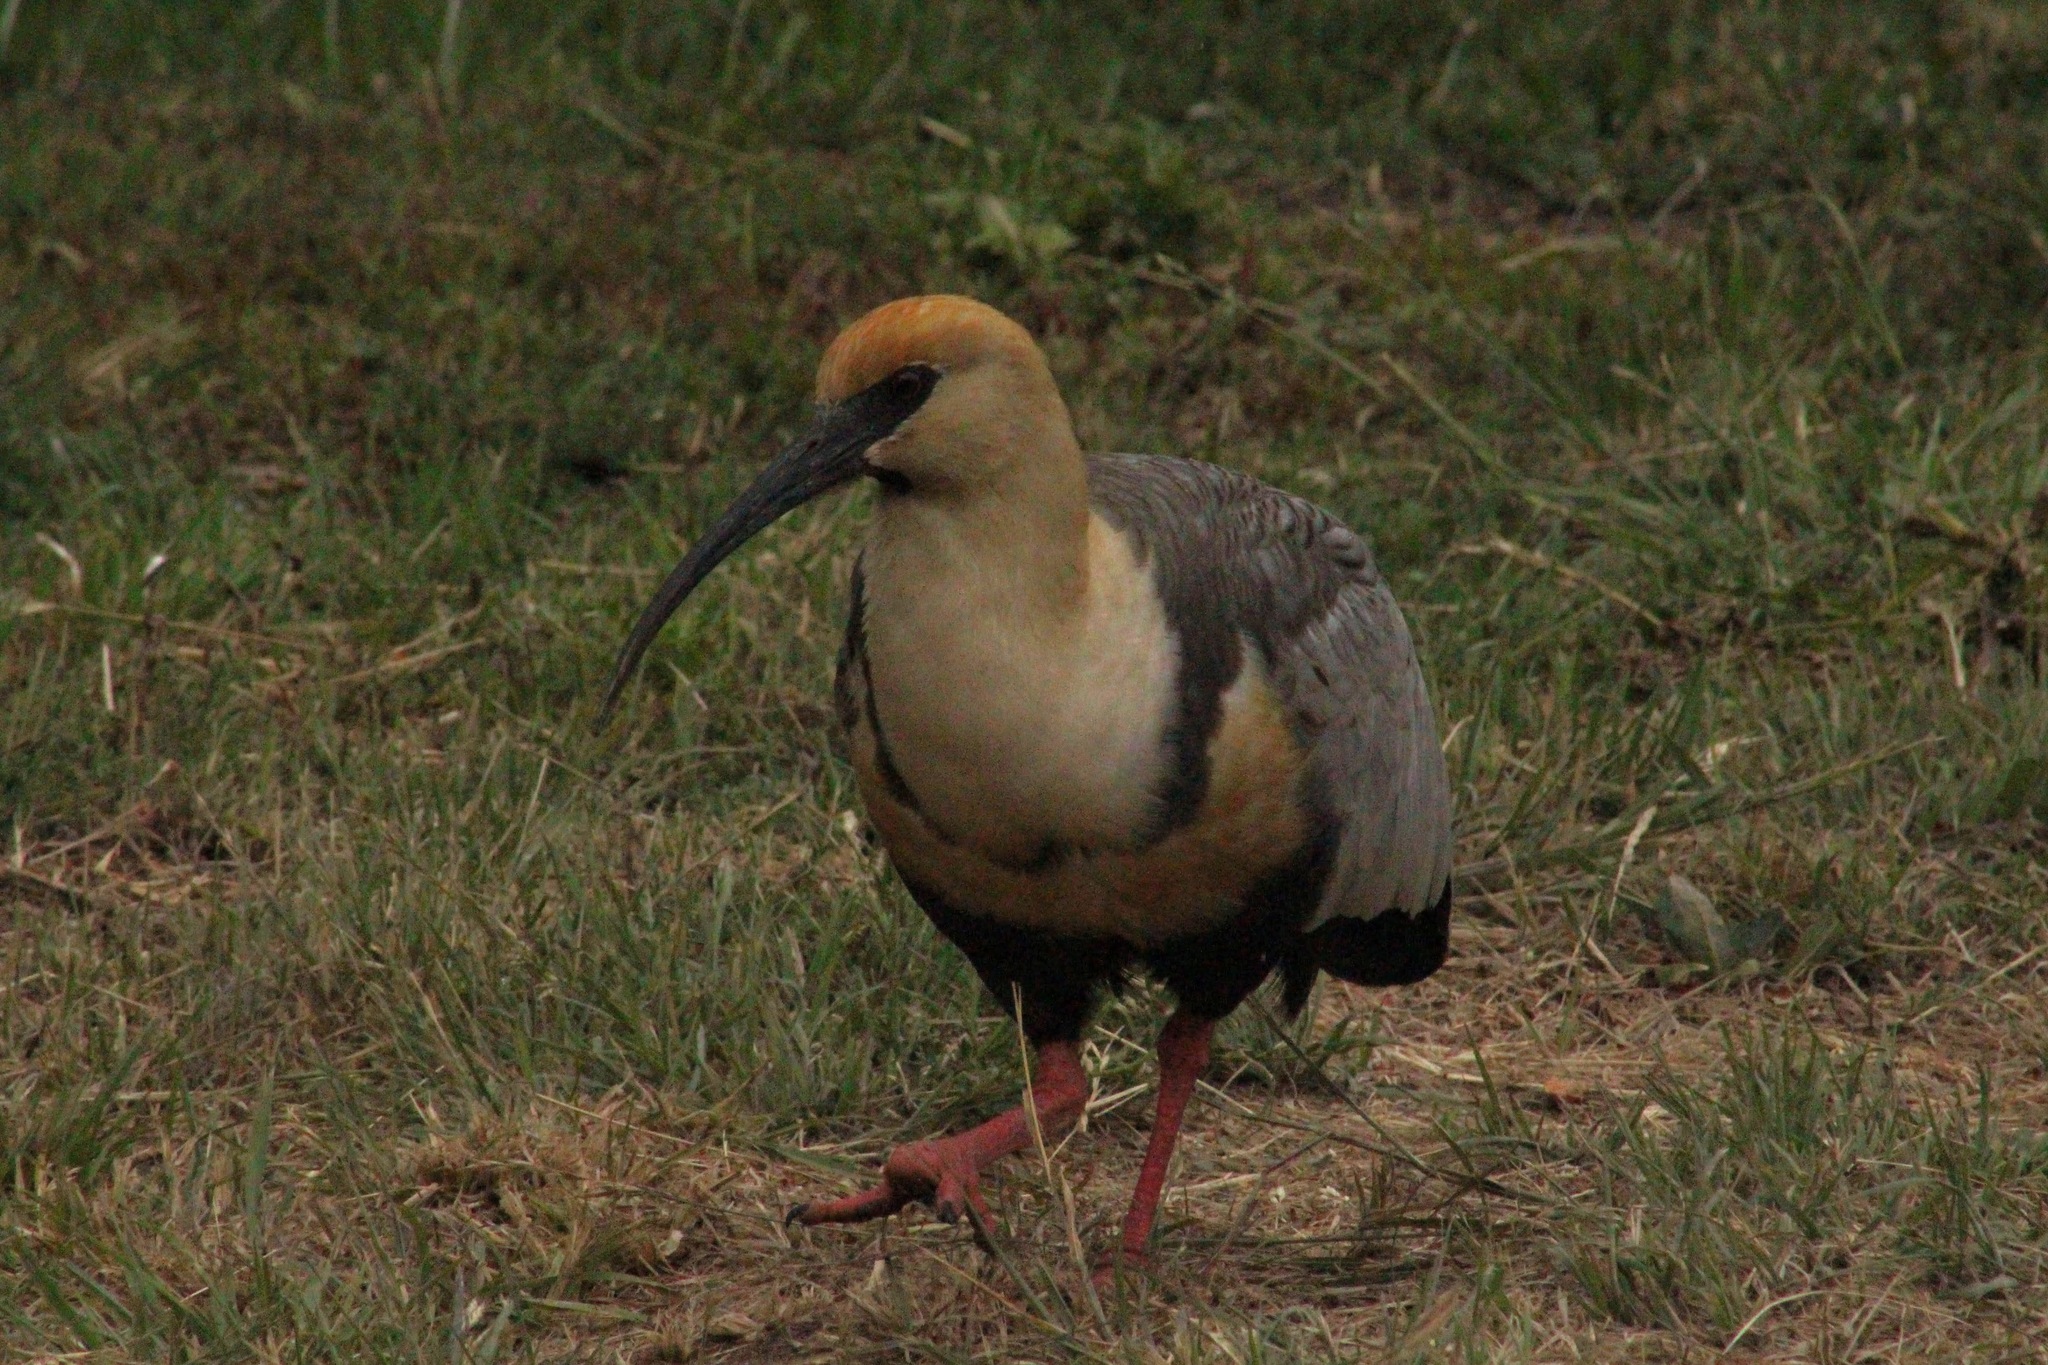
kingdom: Animalia
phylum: Chordata
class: Aves
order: Pelecaniformes
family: Threskiornithidae
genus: Theristicus
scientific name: Theristicus melanopis
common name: Black-faced ibis
